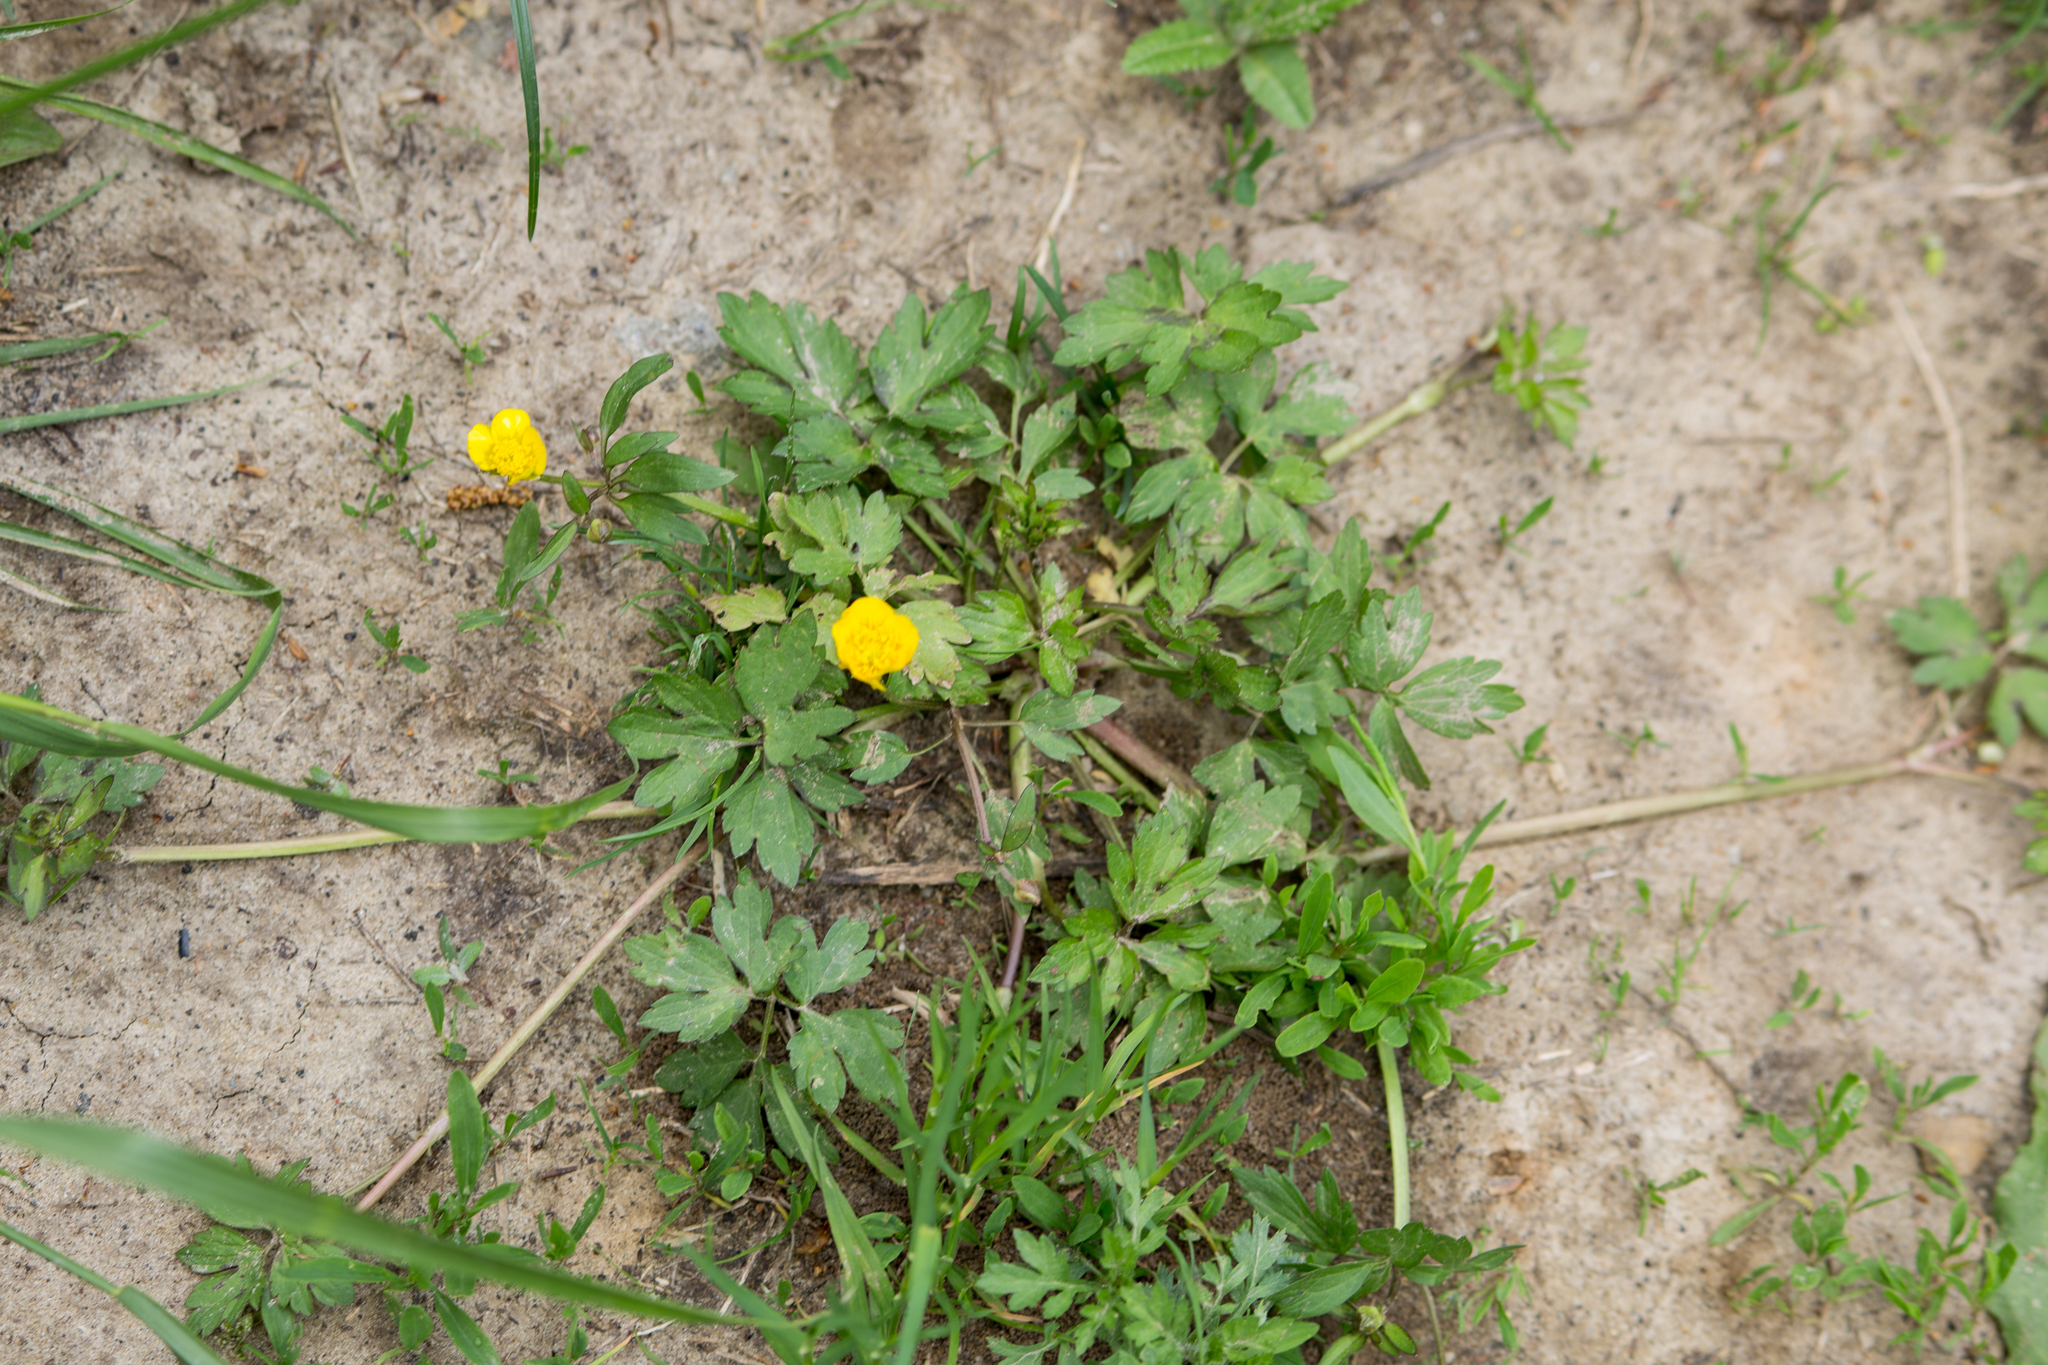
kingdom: Plantae
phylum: Tracheophyta
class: Magnoliopsida
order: Ranunculales
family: Ranunculaceae
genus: Ranunculus
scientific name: Ranunculus repens
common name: Creeping buttercup
